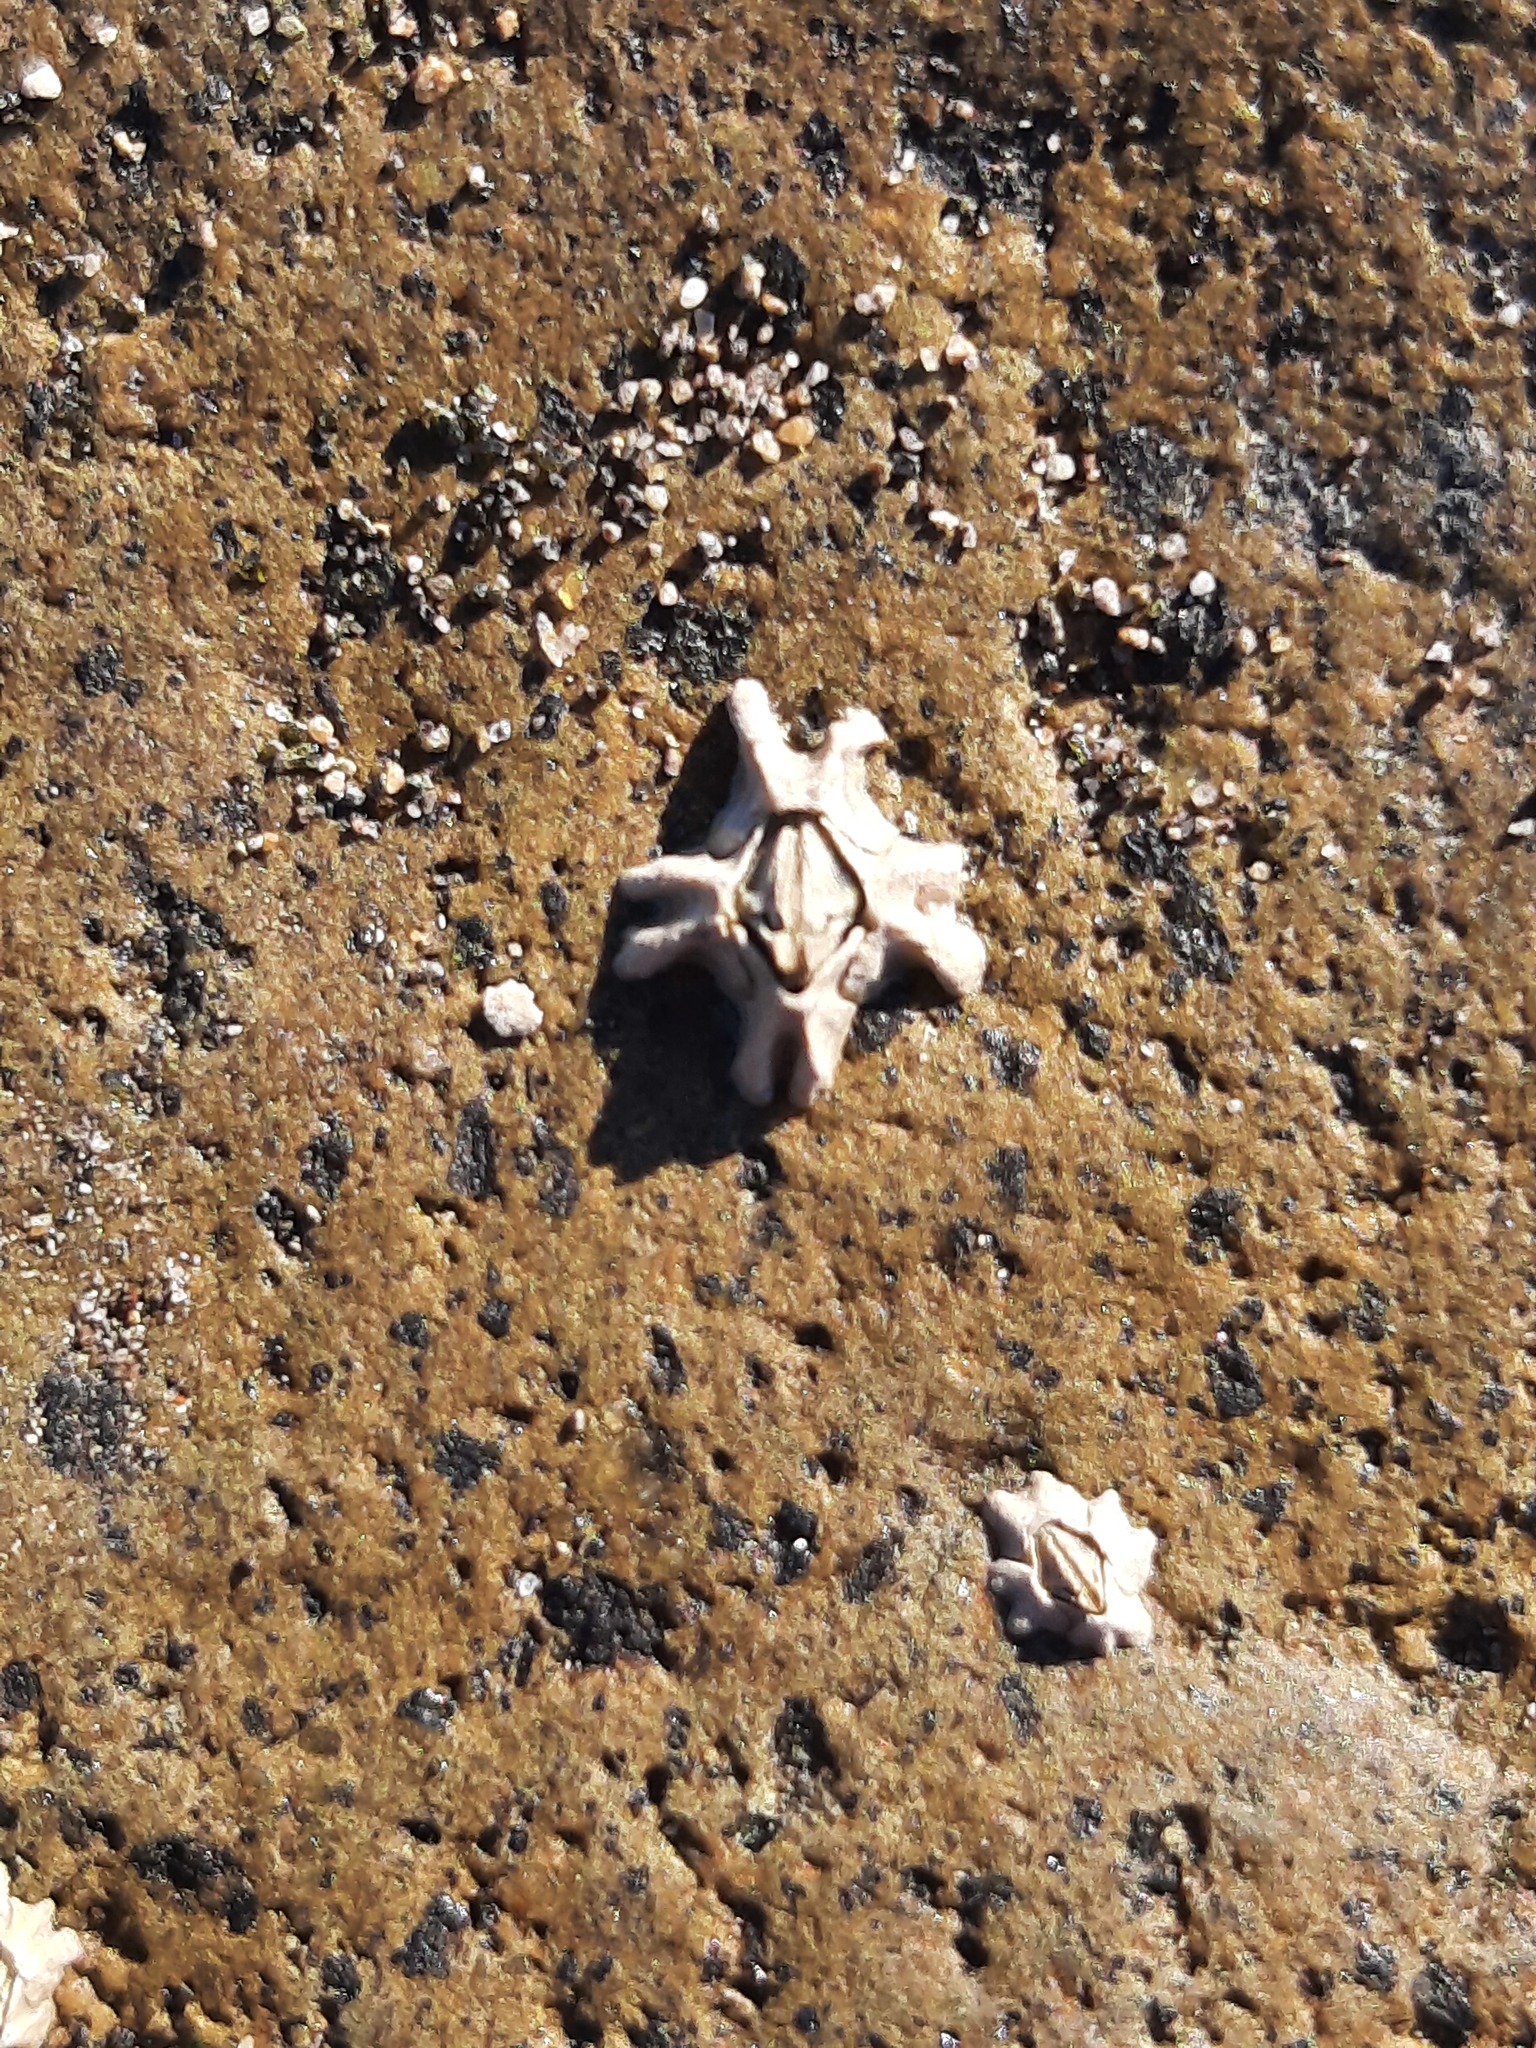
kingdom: Animalia
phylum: Arthropoda
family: Elminiidae
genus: Austrominius
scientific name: Austrominius modestus
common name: Australasian barnacle
